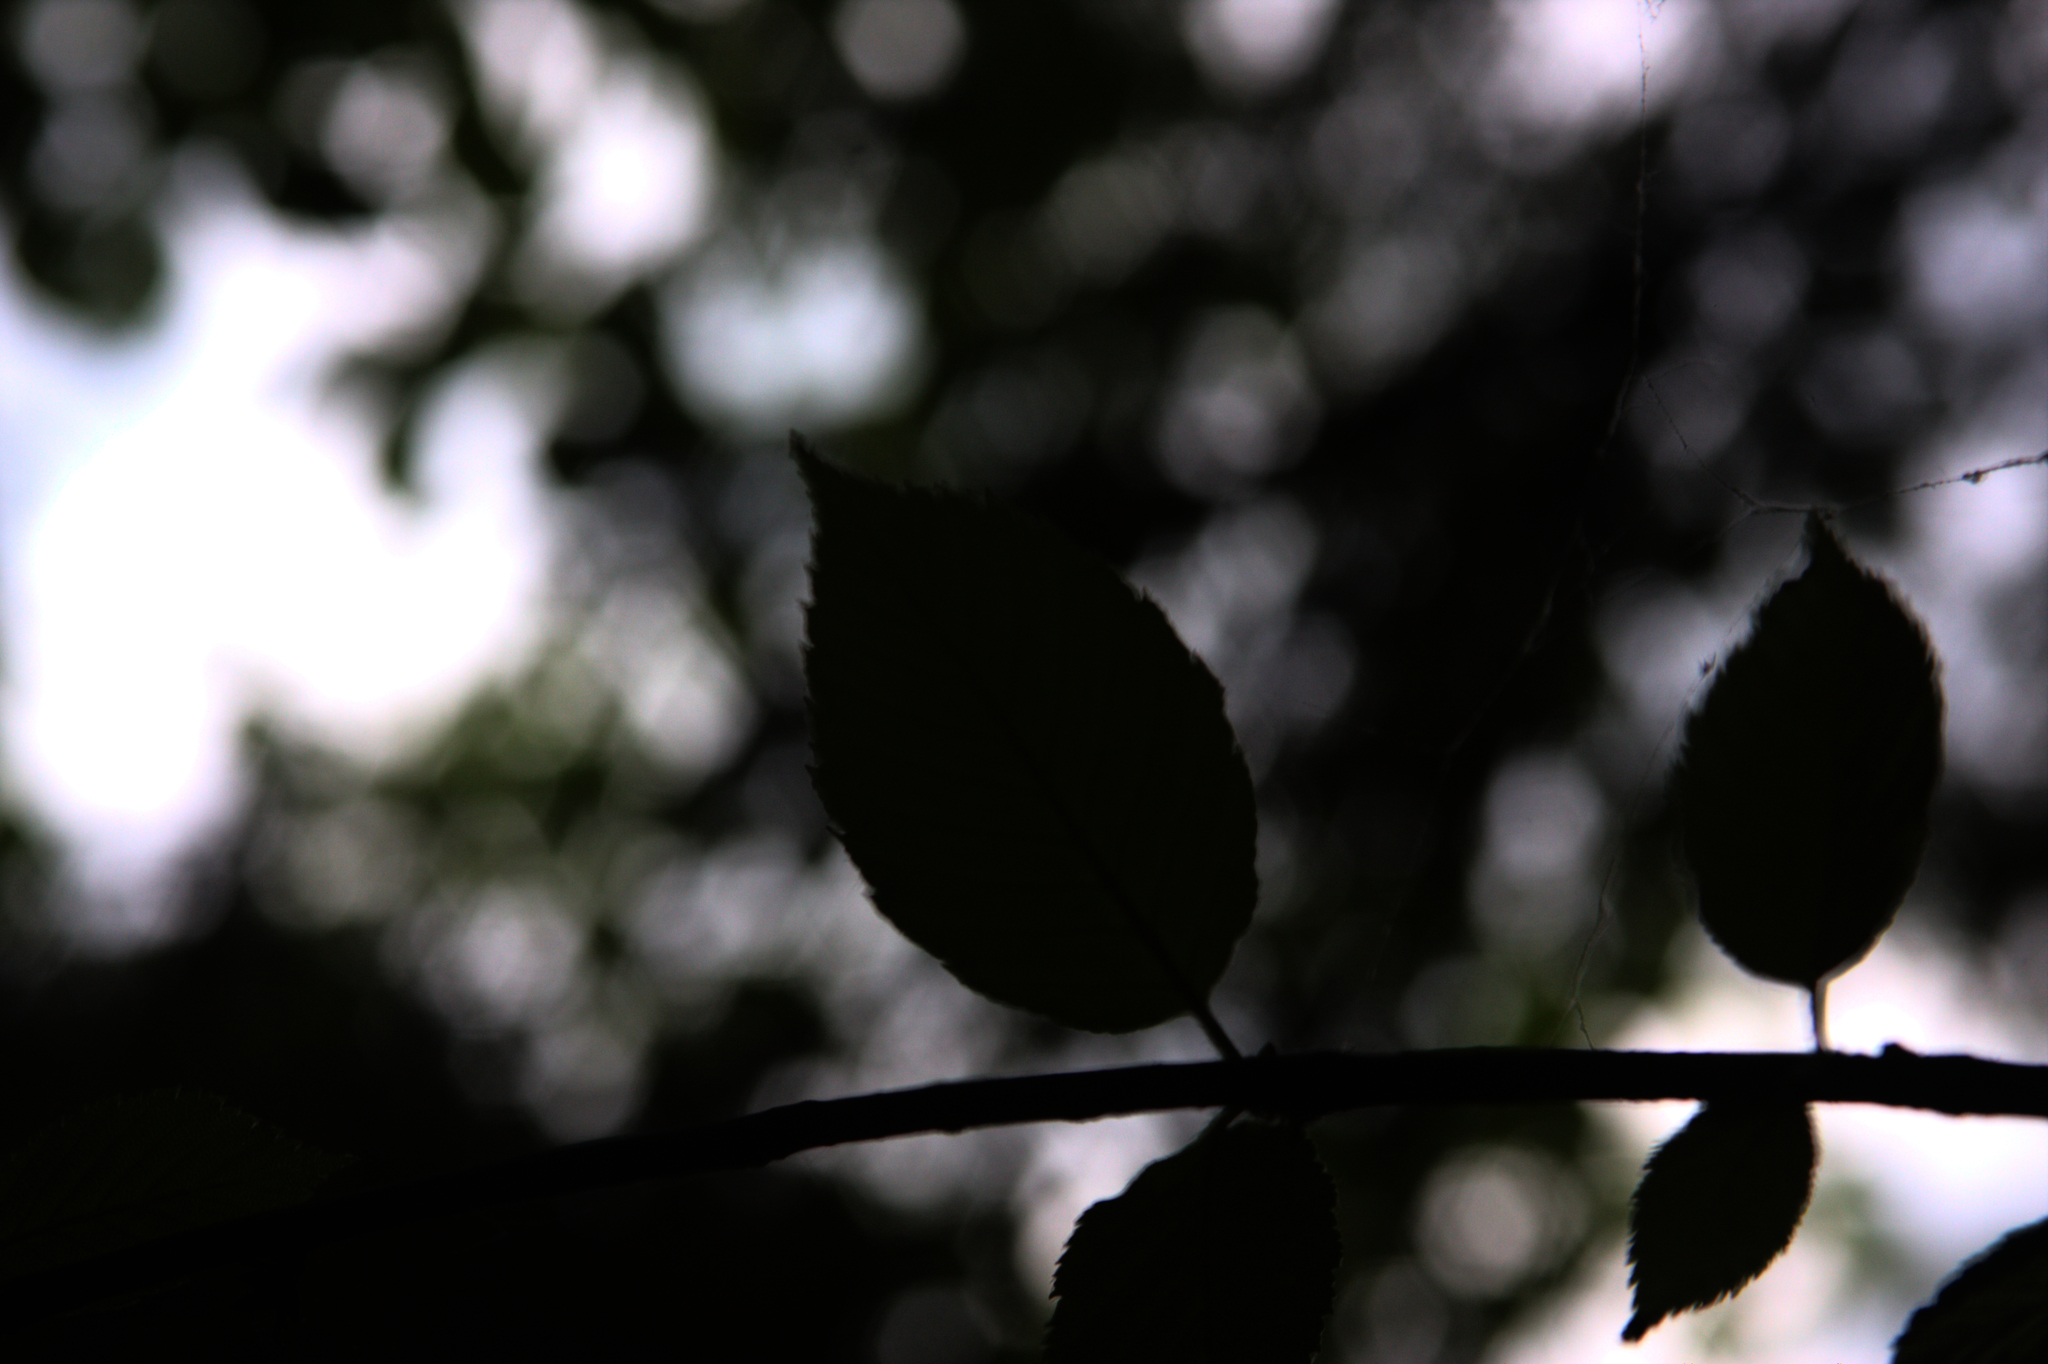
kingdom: Plantae
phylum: Tracheophyta
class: Magnoliopsida
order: Fagales
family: Betulaceae
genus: Betula
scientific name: Betula alleghaniensis
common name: Yellow birch
